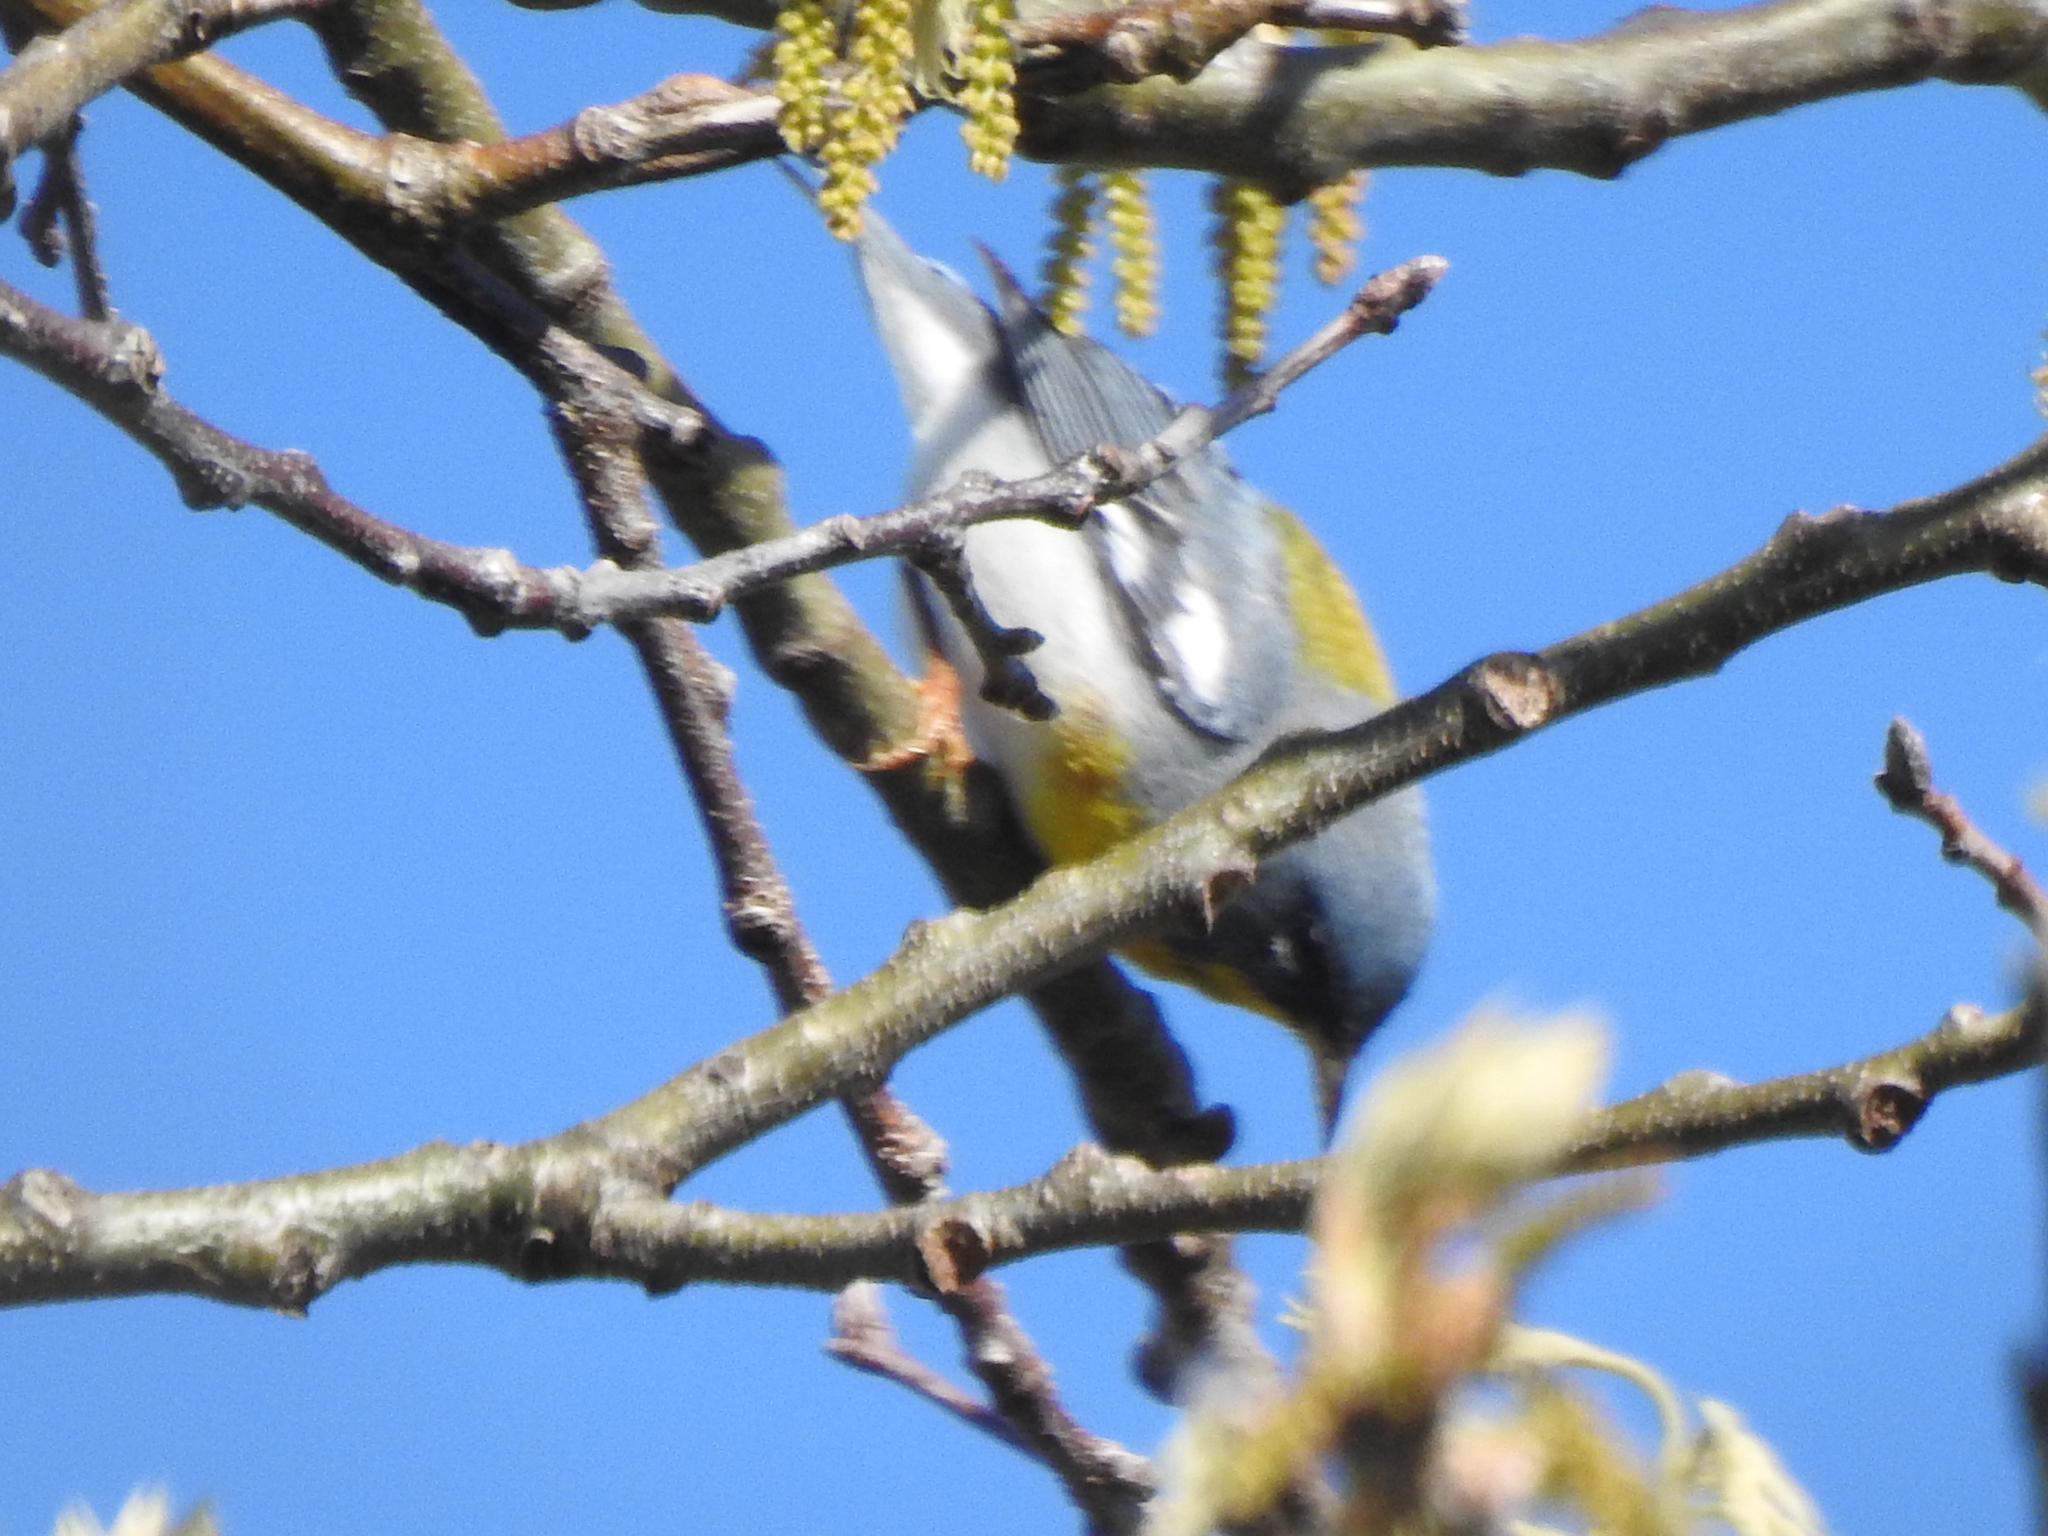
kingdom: Animalia
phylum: Chordata
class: Aves
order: Passeriformes
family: Parulidae
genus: Setophaga
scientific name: Setophaga americana
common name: Northern parula
